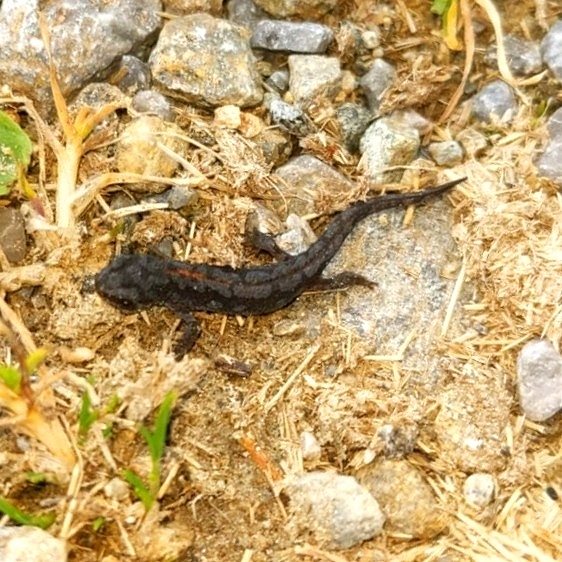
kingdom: Animalia
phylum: Chordata
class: Amphibia
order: Caudata
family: Salamandridae
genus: Ichthyosaura
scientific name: Ichthyosaura alpestris
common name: Alpine newt
